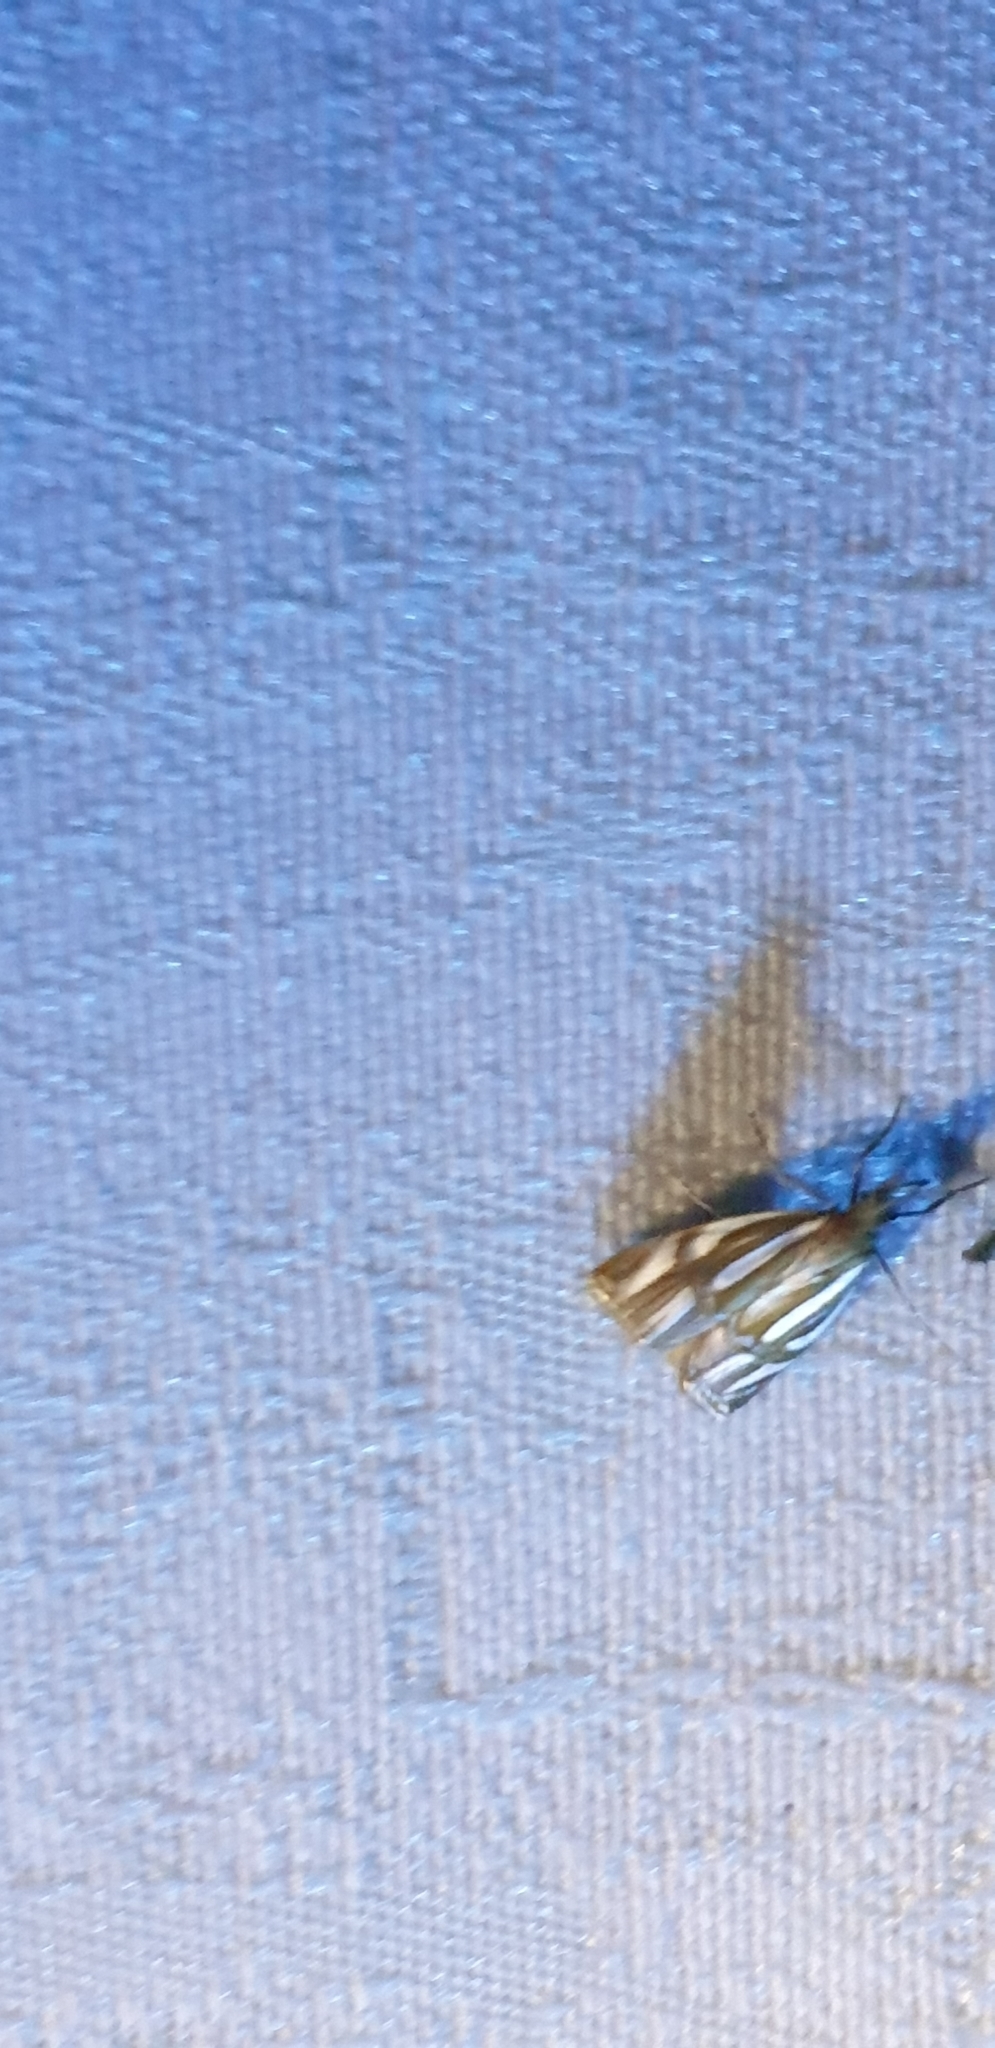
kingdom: Animalia
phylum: Arthropoda
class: Insecta
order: Lepidoptera
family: Crambidae
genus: Hednota
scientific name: Hednota bifractellus
